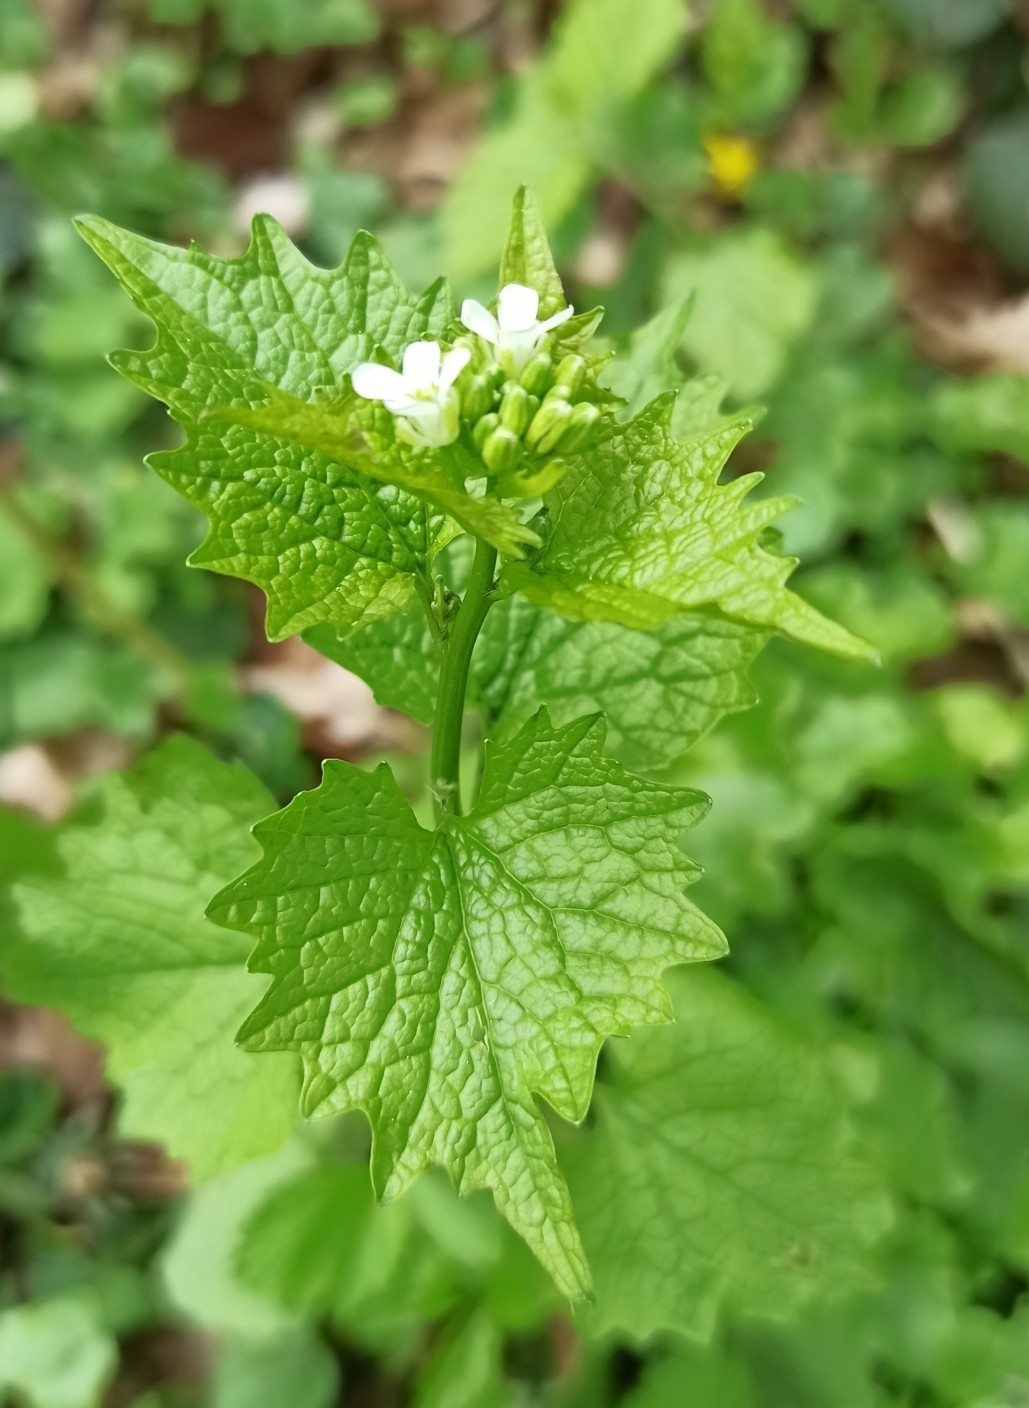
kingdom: Plantae
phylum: Tracheophyta
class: Magnoliopsida
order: Brassicales
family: Brassicaceae
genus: Alliaria
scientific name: Alliaria petiolata
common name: Garlic mustard
